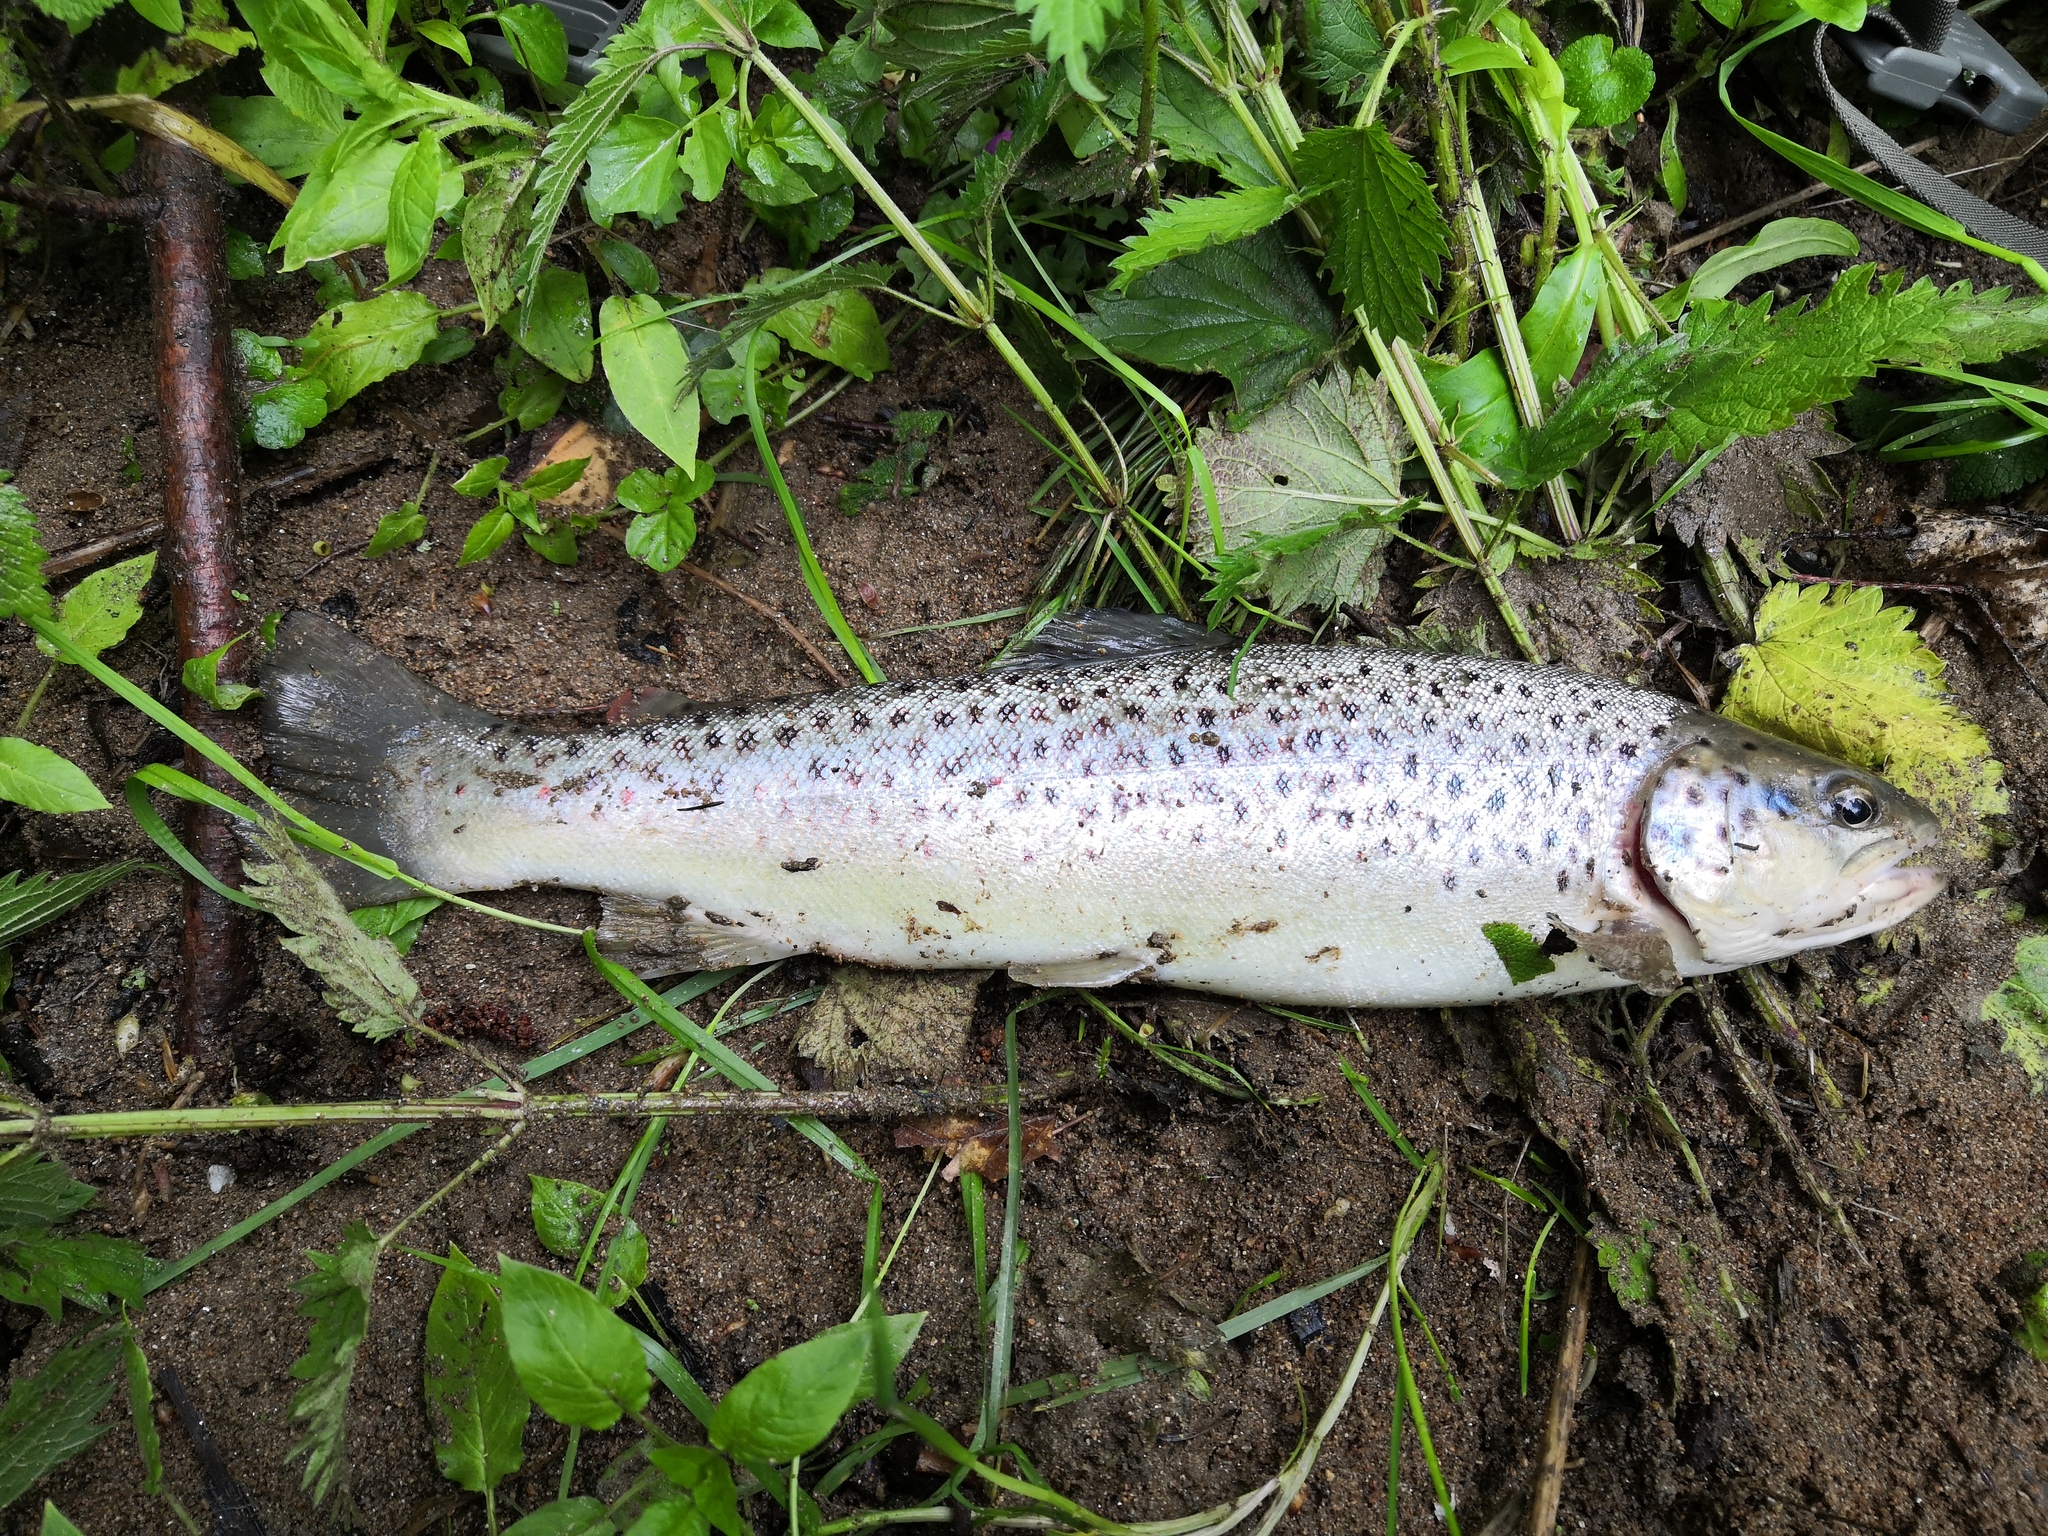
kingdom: Animalia
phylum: Chordata
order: Salmoniformes
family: Salmonidae
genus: Salmo
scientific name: Salmo trutta
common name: Brown trout
